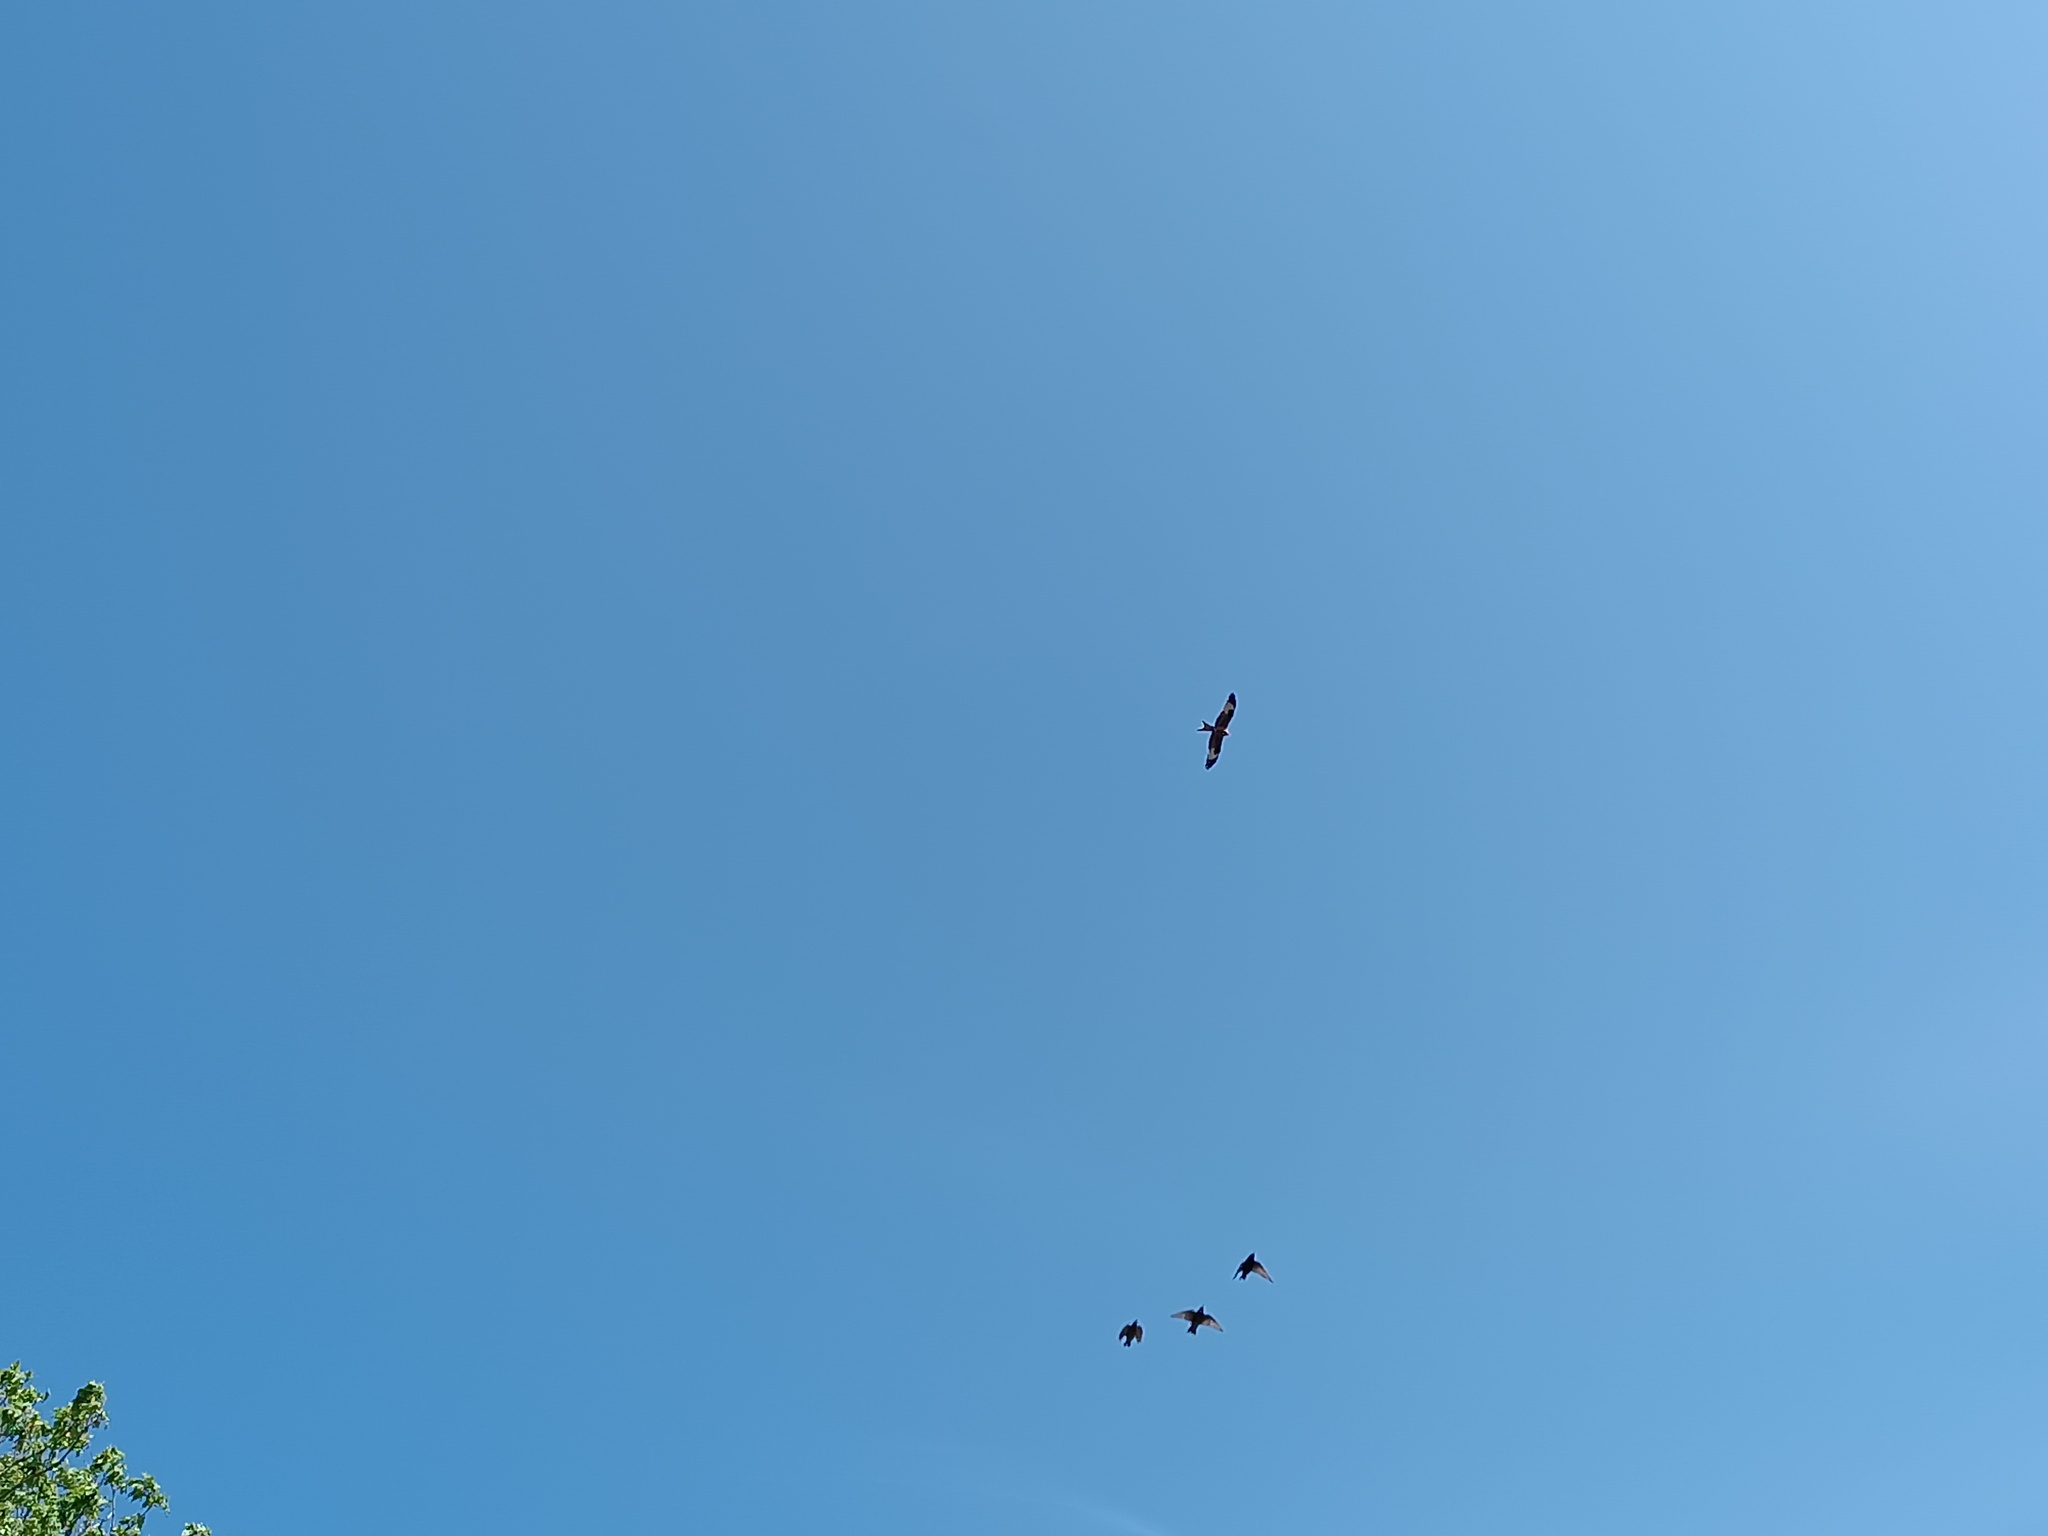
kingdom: Animalia
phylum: Chordata
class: Aves
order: Accipitriformes
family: Accipitridae
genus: Milvus
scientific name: Milvus milvus
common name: Red kite
